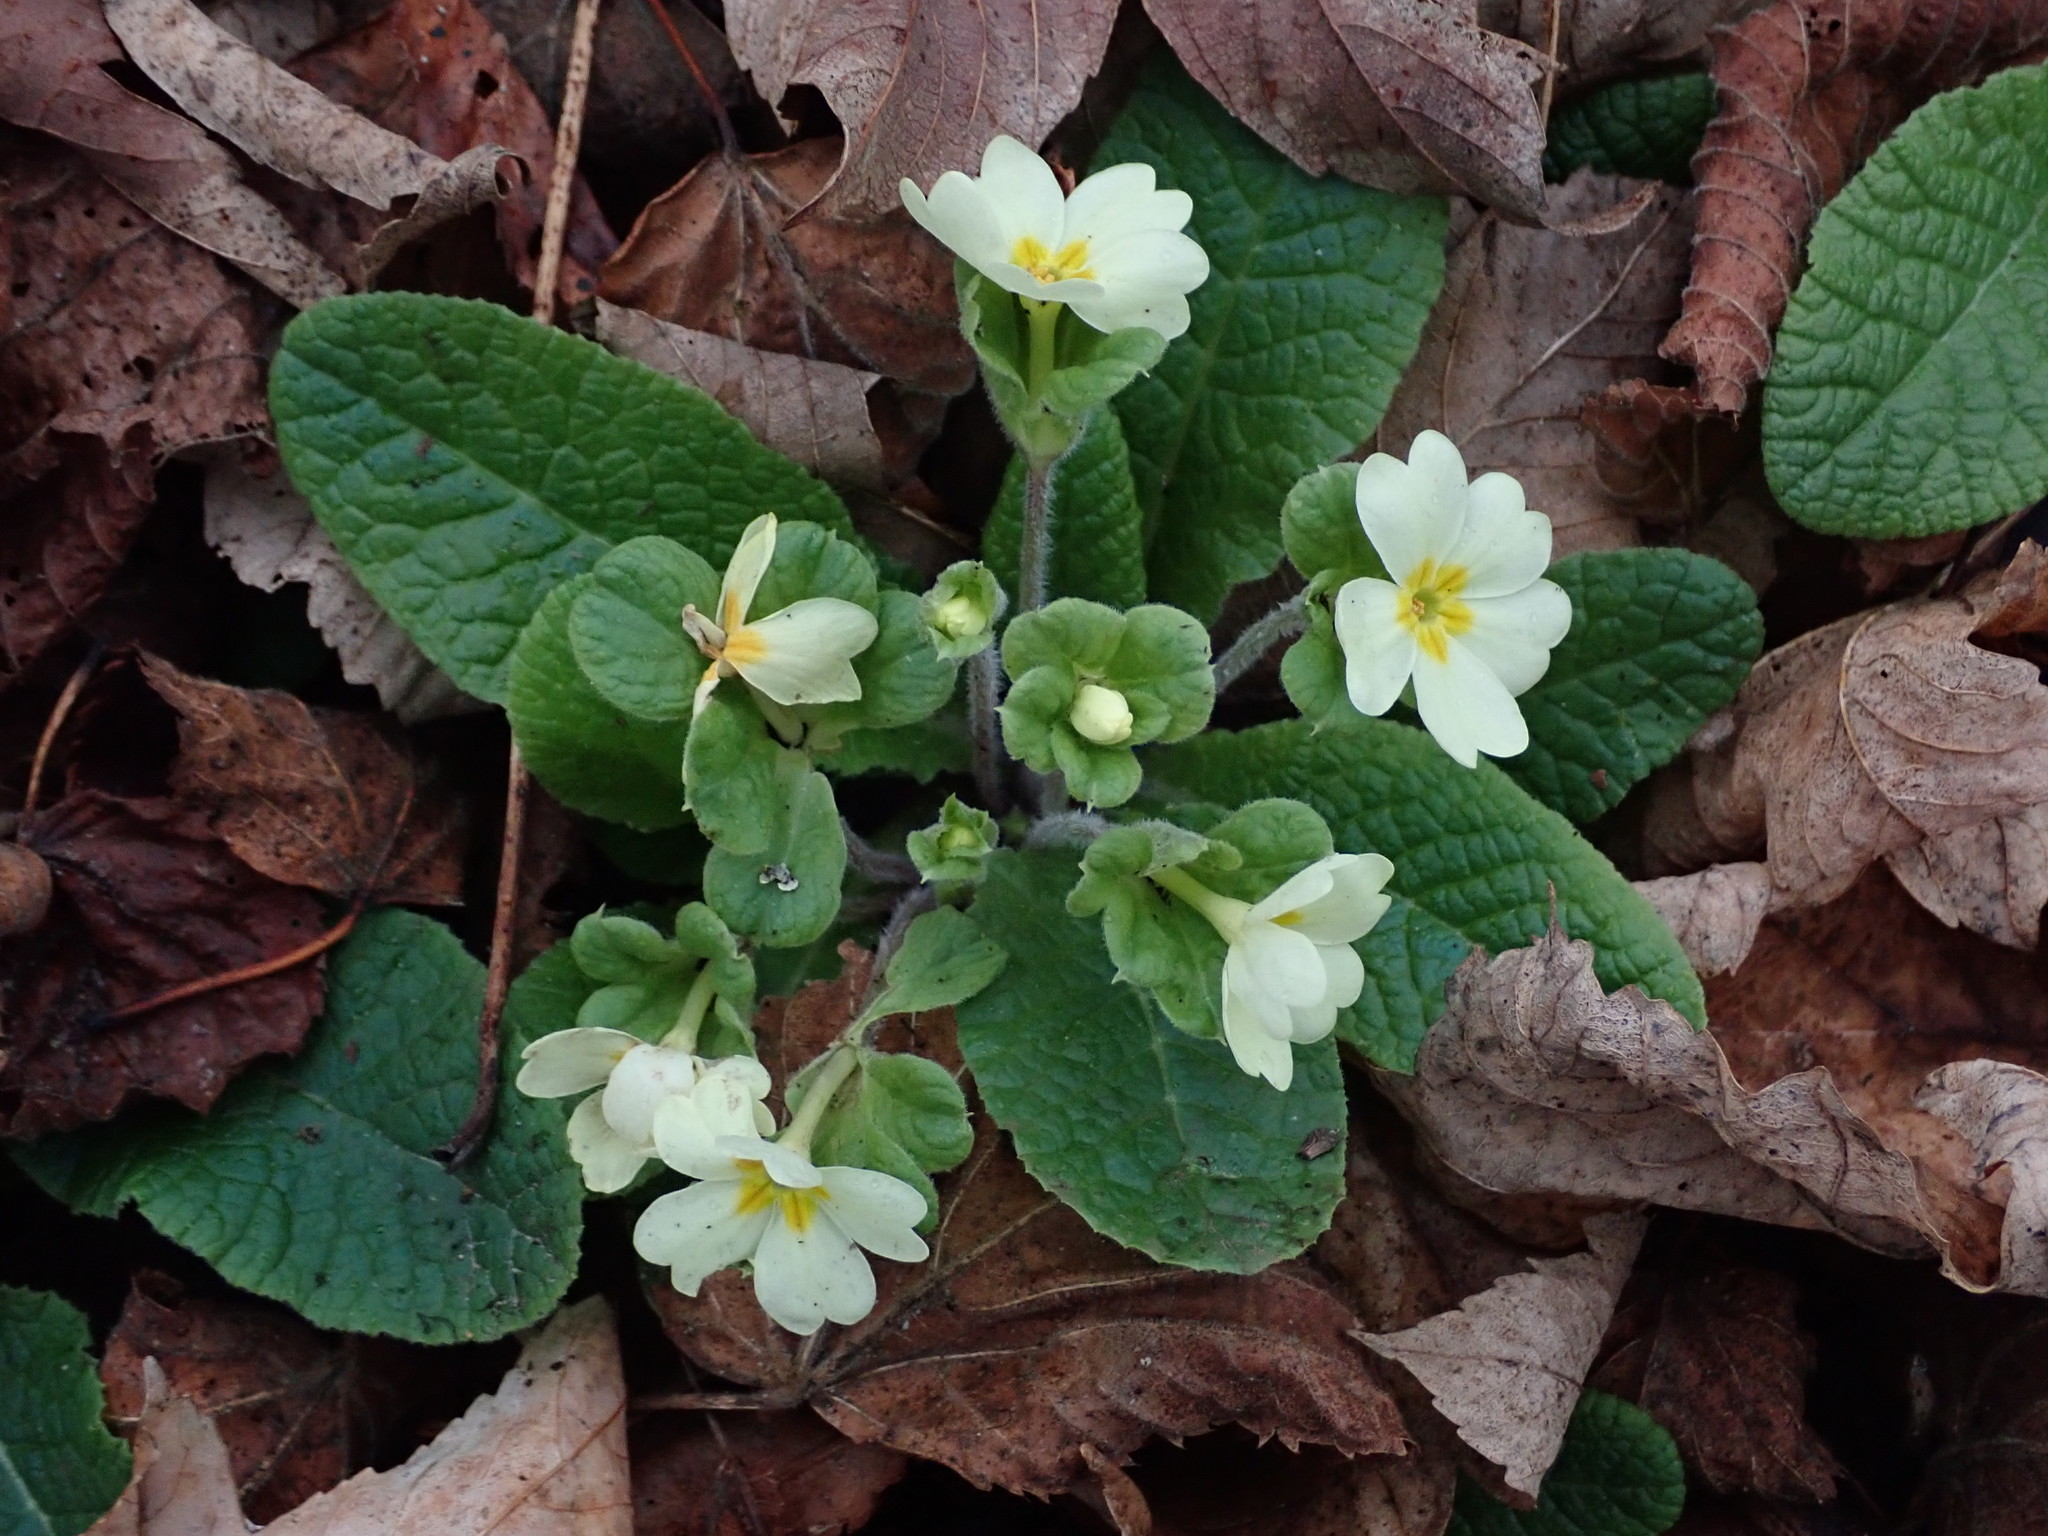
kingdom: Plantae
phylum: Tracheophyta
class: Magnoliopsida
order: Ericales
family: Primulaceae
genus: Primula
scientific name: Primula vulgaris
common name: Primrose
